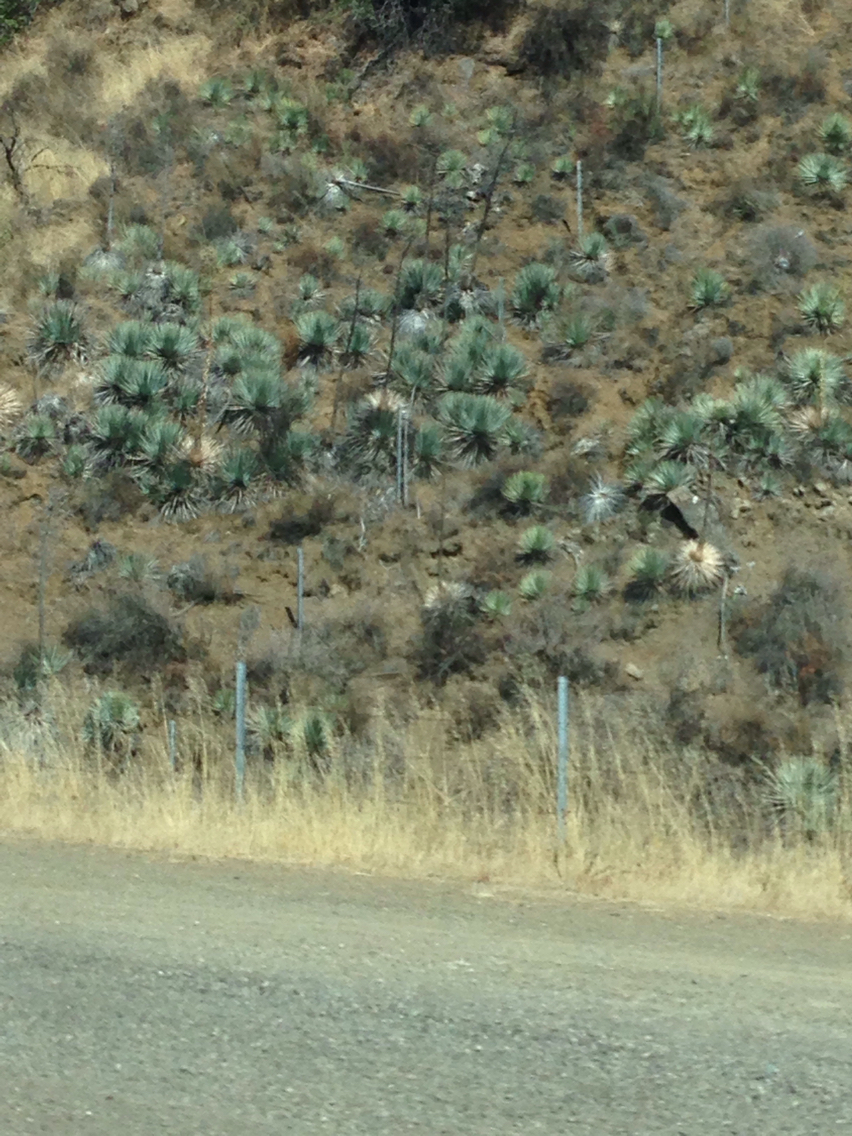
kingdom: Plantae
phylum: Tracheophyta
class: Liliopsida
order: Asparagales
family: Asparagaceae
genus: Hesperoyucca
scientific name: Hesperoyucca whipplei
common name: Our lord's-candle
